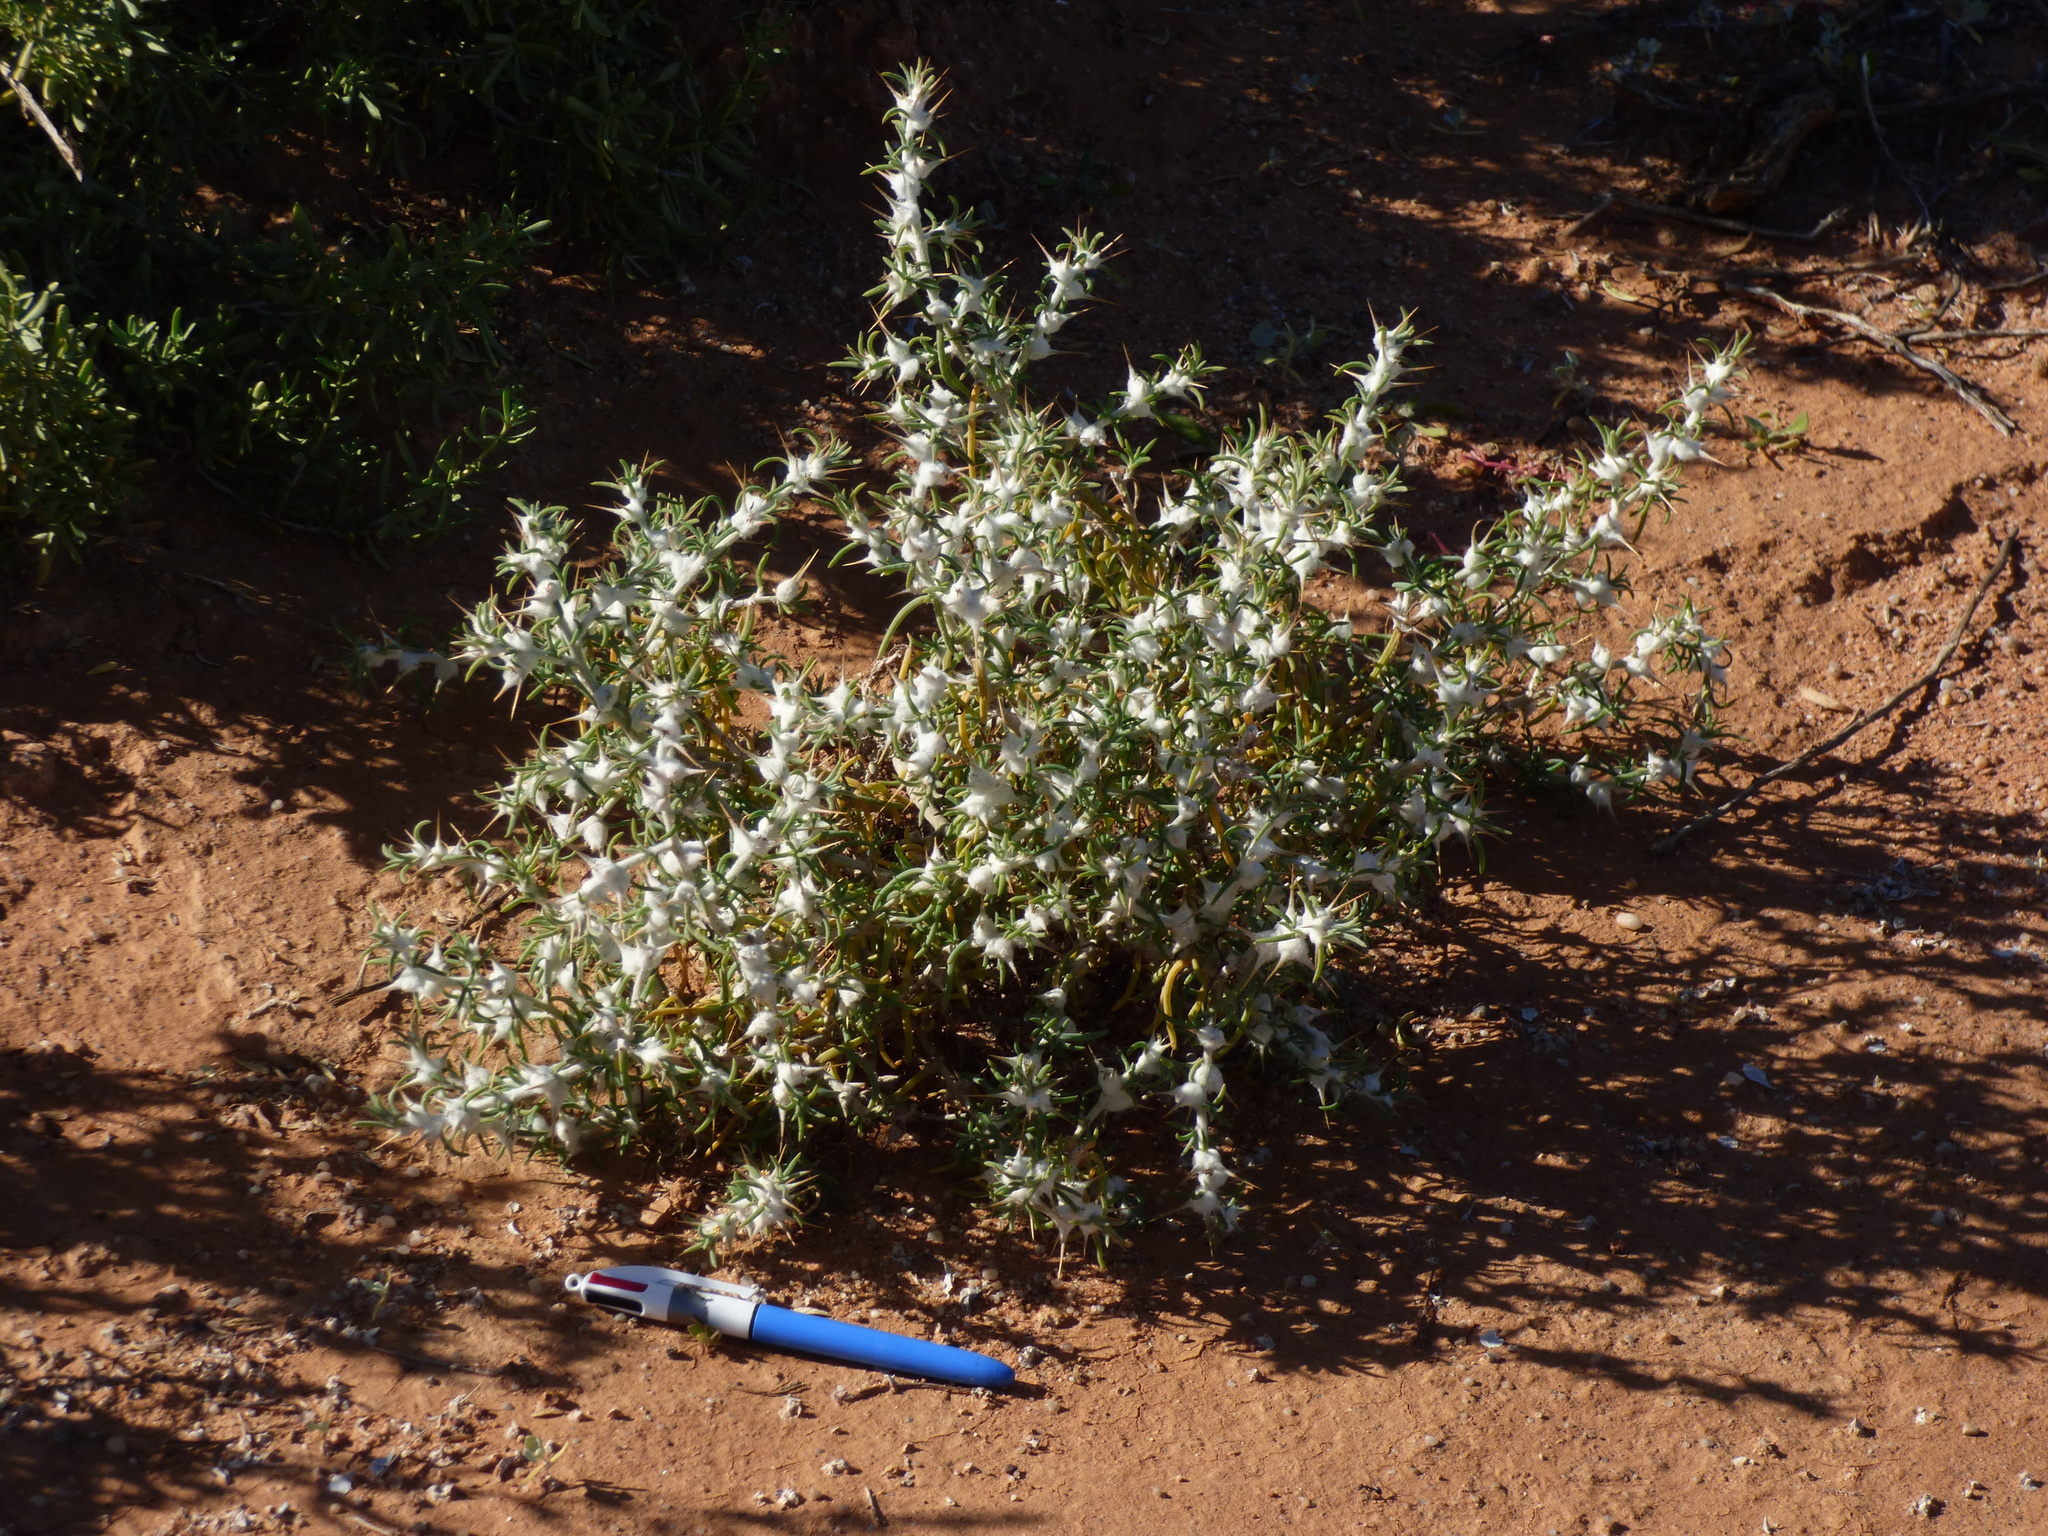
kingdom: Plantae
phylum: Tracheophyta
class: Magnoliopsida
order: Caryophyllales
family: Amaranthaceae
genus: Sclerolaena
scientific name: Sclerolaena bicornis
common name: Goatheadbur
